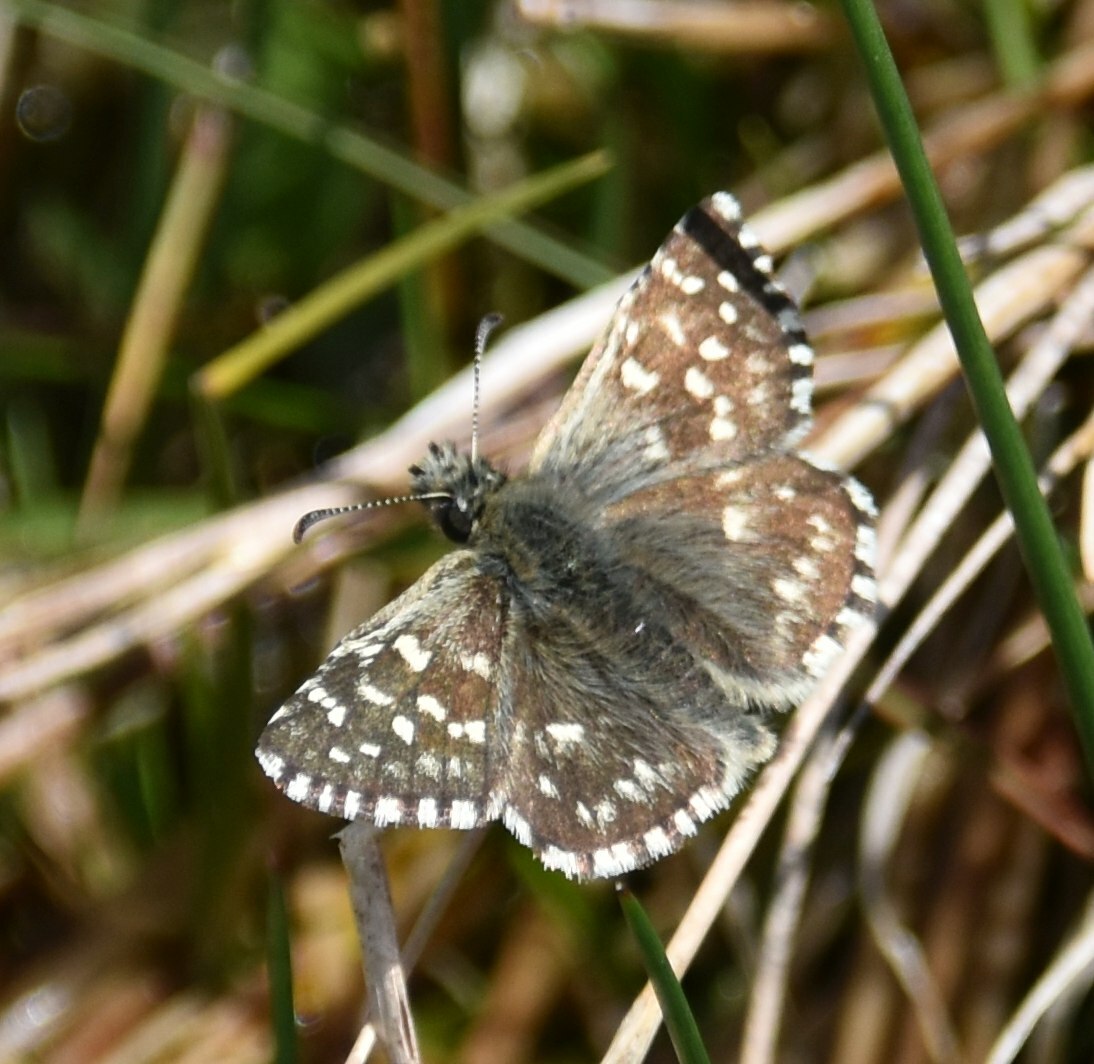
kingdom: Animalia
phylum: Arthropoda
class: Insecta
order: Lepidoptera
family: Hesperiidae
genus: Pyrgus
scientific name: Pyrgus malvae
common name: Grizzled skipper
